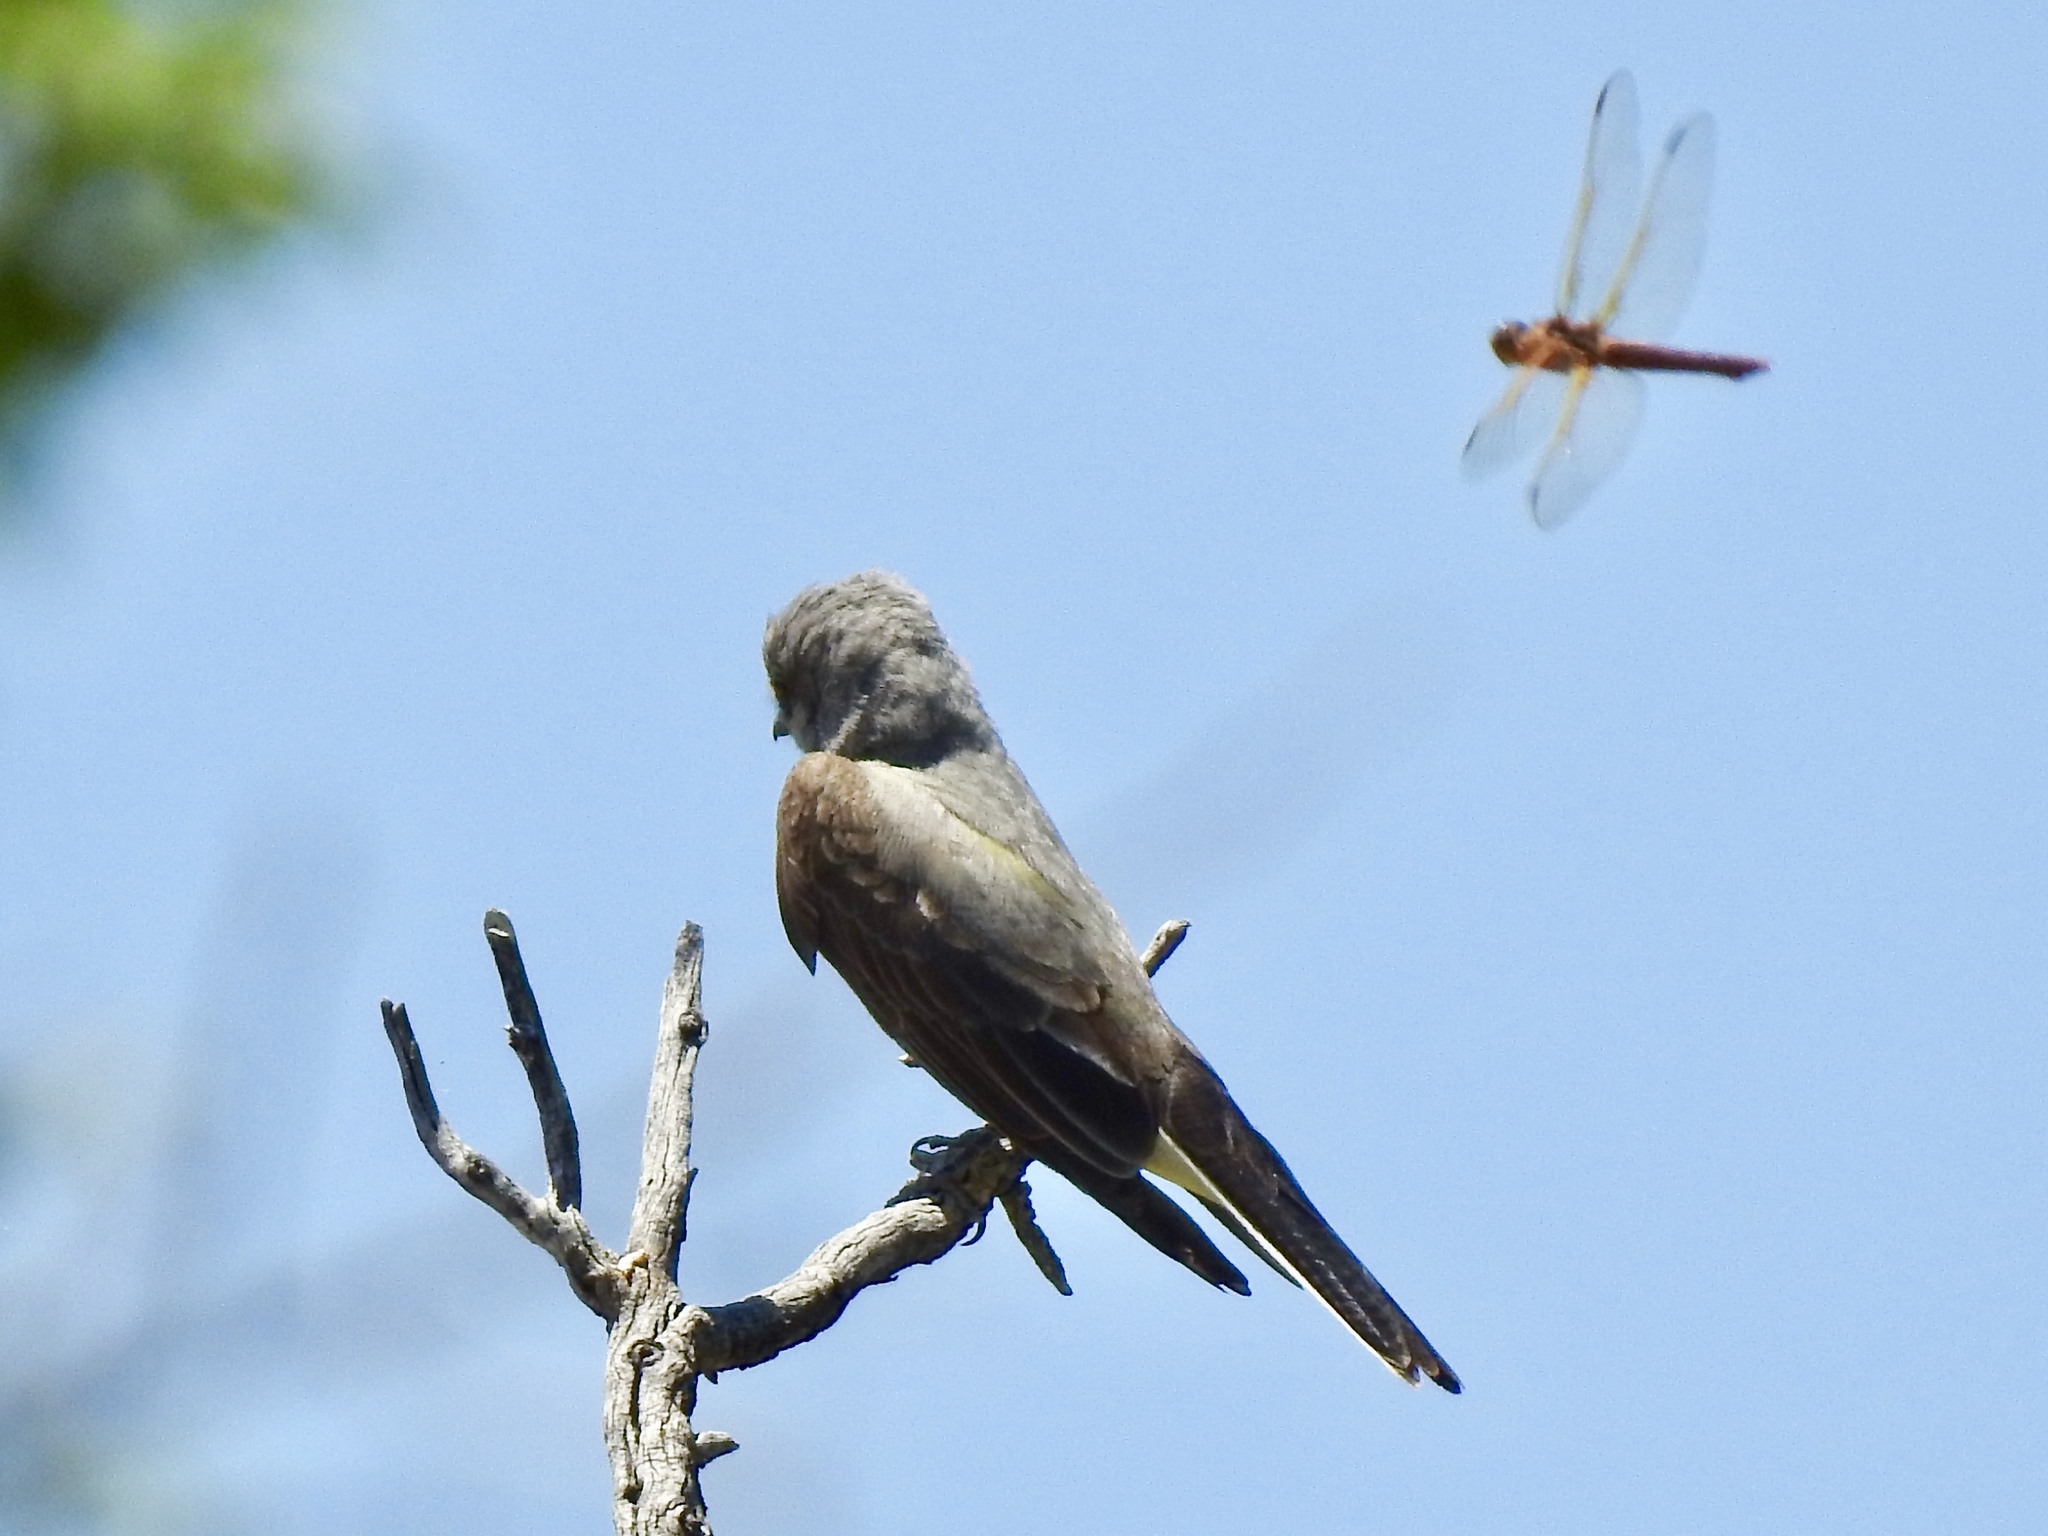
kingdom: Animalia
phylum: Arthropoda
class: Insecta
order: Odonata
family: Libellulidae
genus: Libellula
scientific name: Libellula saturata
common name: Flame skimmer
